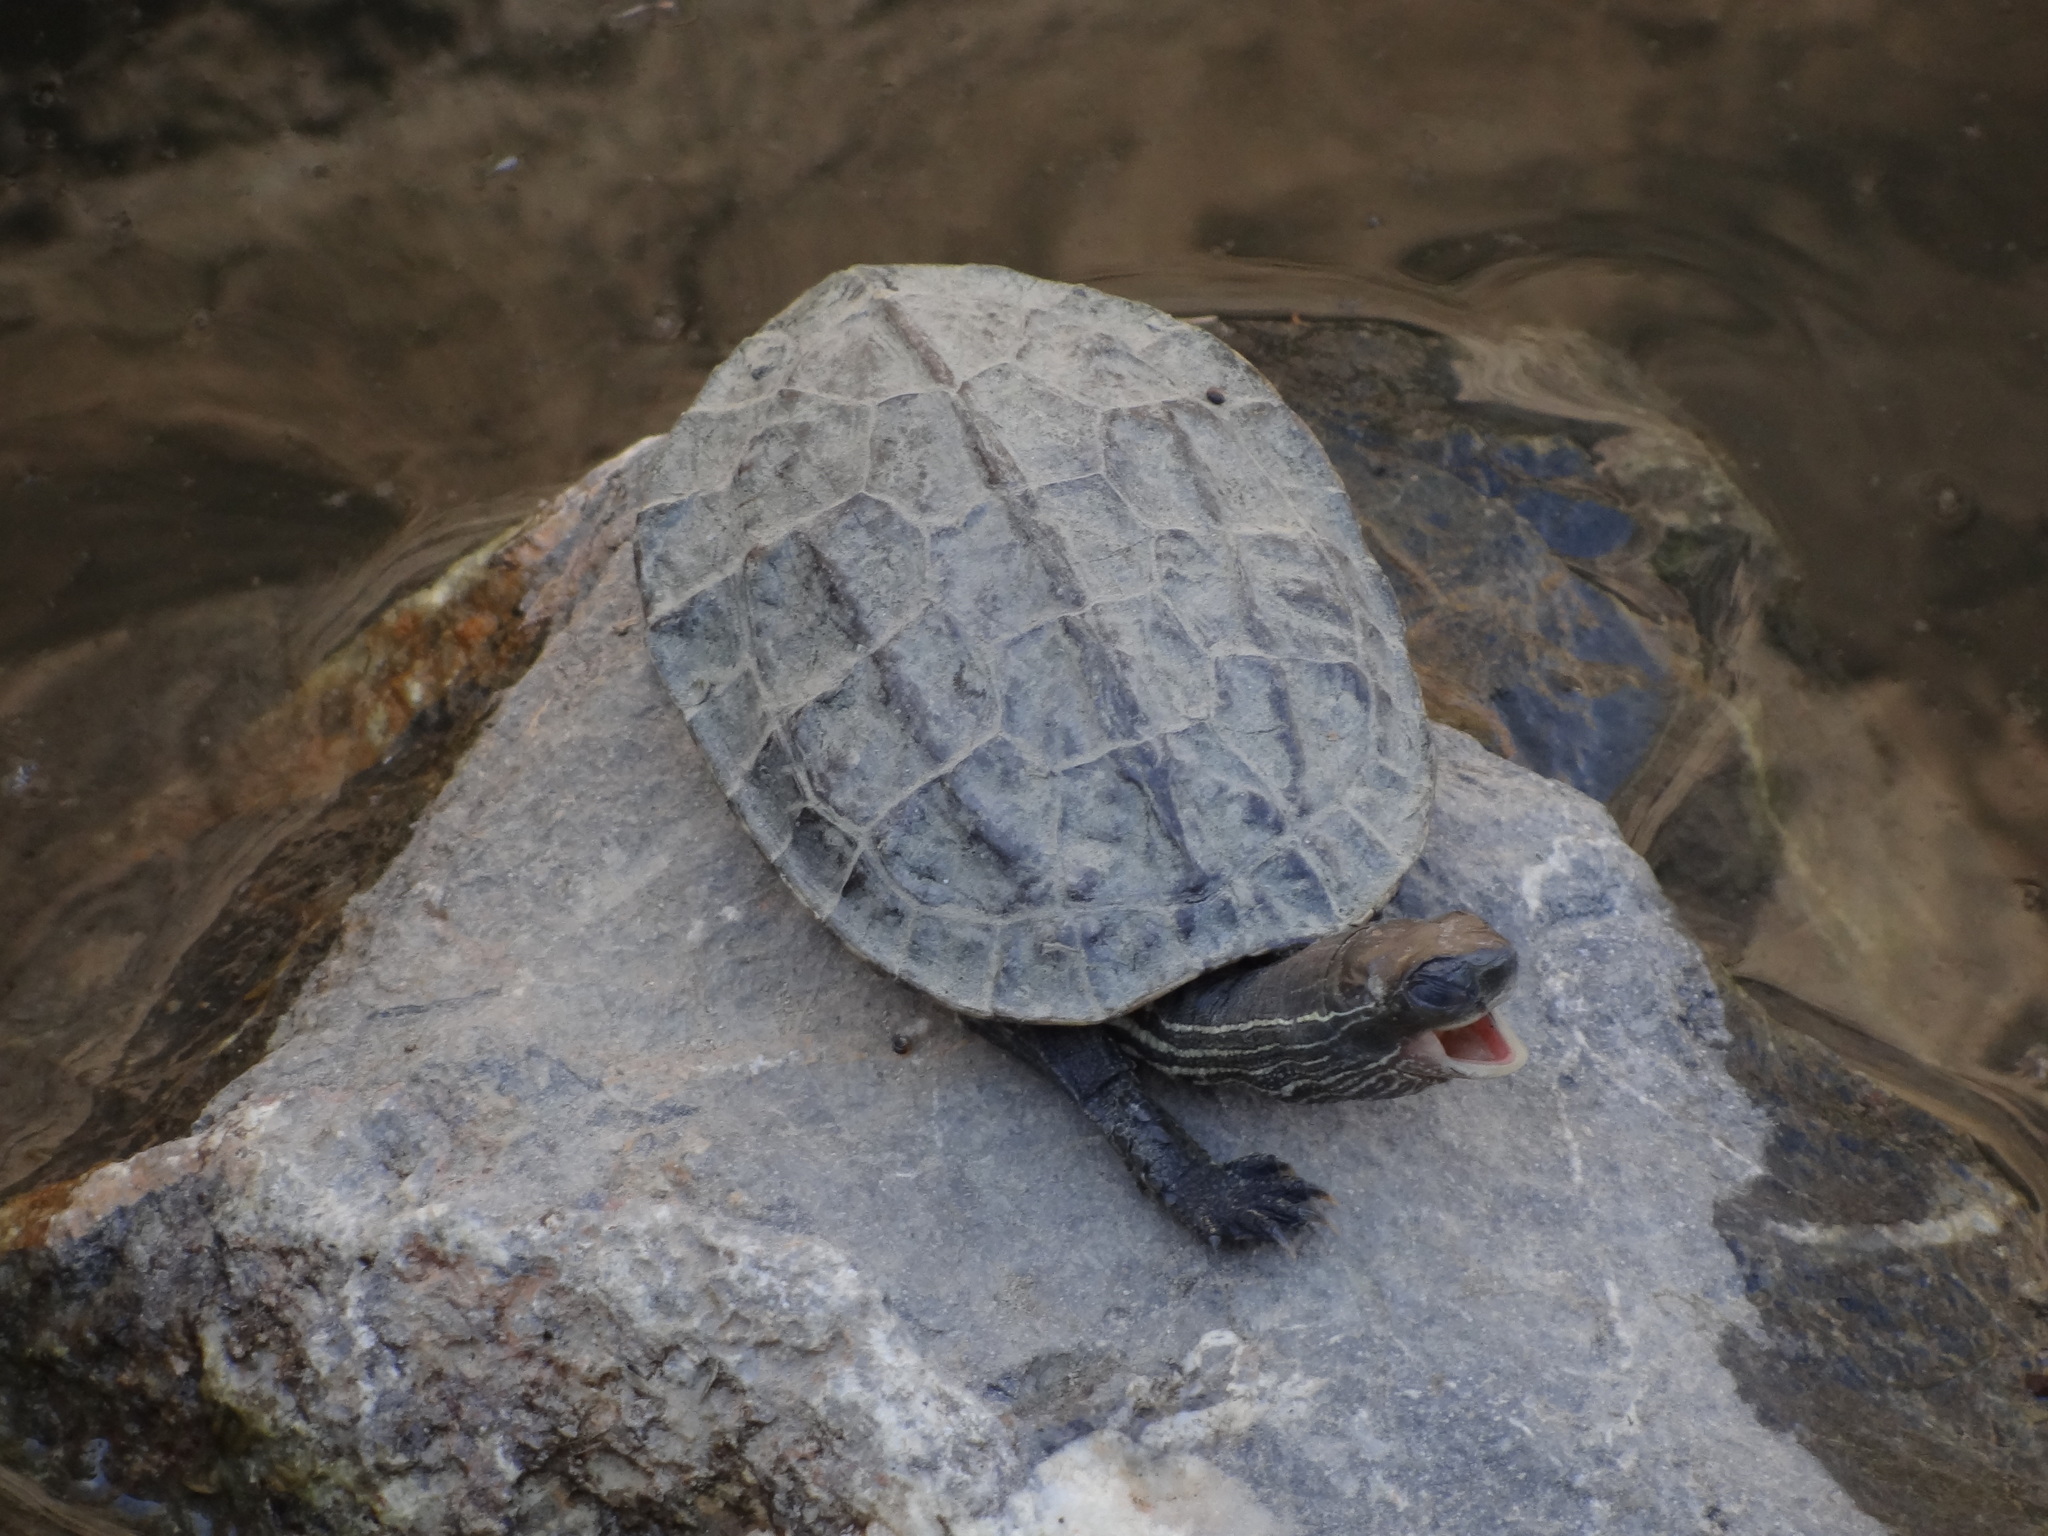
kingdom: Animalia
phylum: Chordata
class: Testudines
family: Geoemydidae
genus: Mauremys
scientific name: Mauremys rivulata
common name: Western caspian turtle
